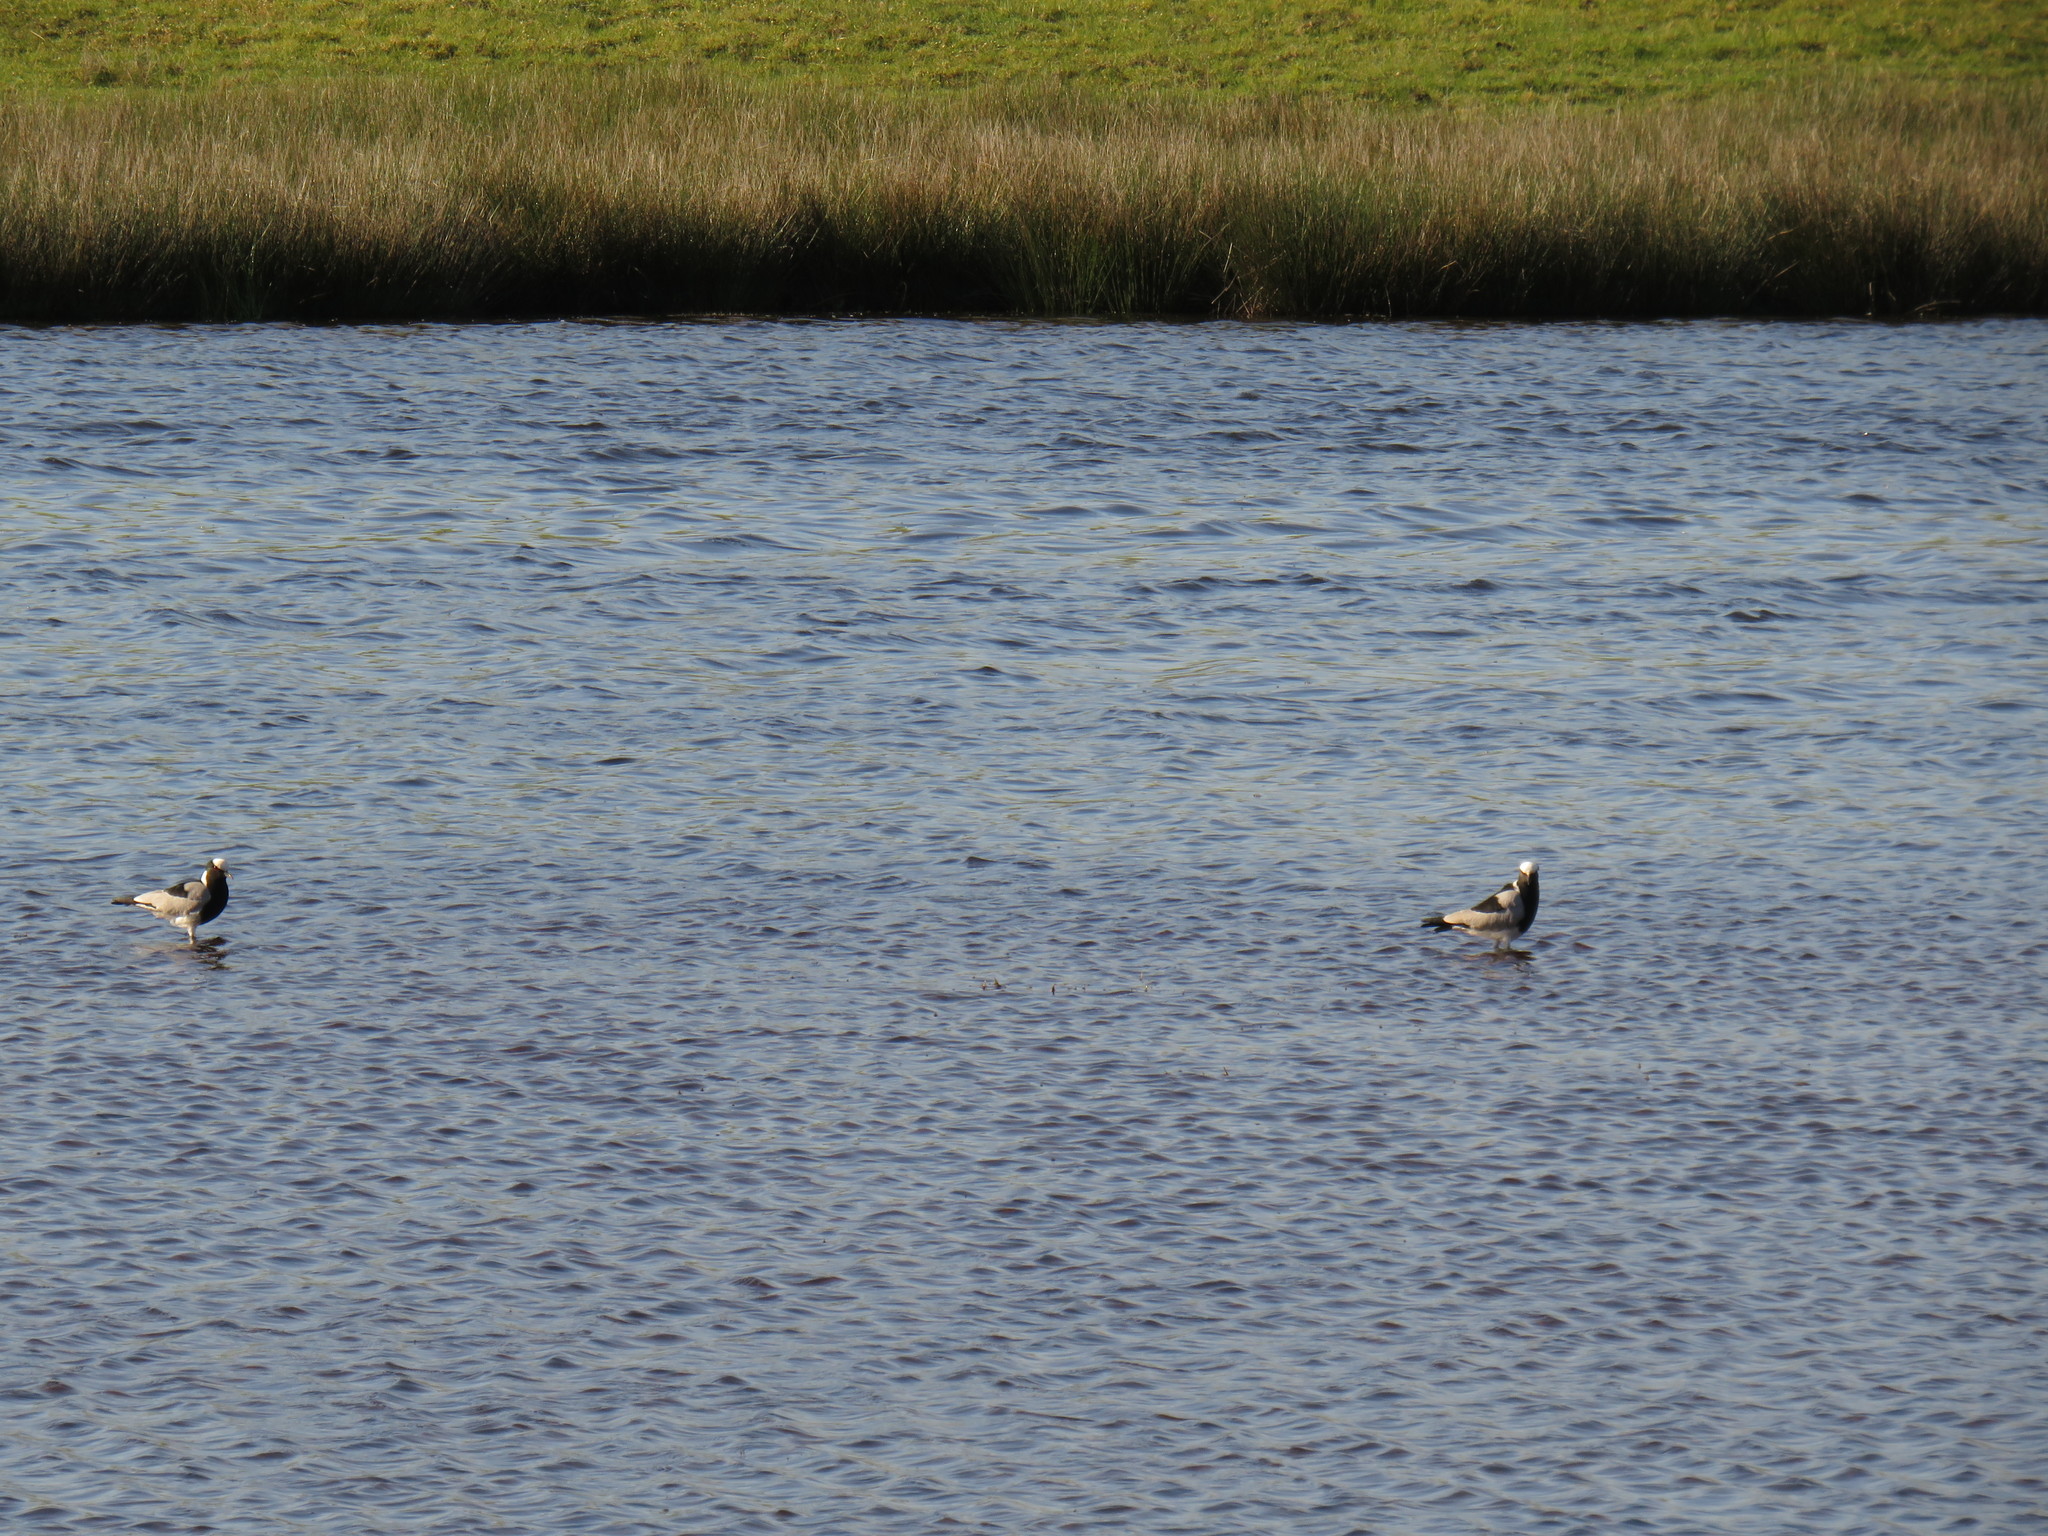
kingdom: Animalia
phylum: Chordata
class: Aves
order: Charadriiformes
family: Charadriidae
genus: Vanellus
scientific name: Vanellus armatus
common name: Blacksmith lapwing
